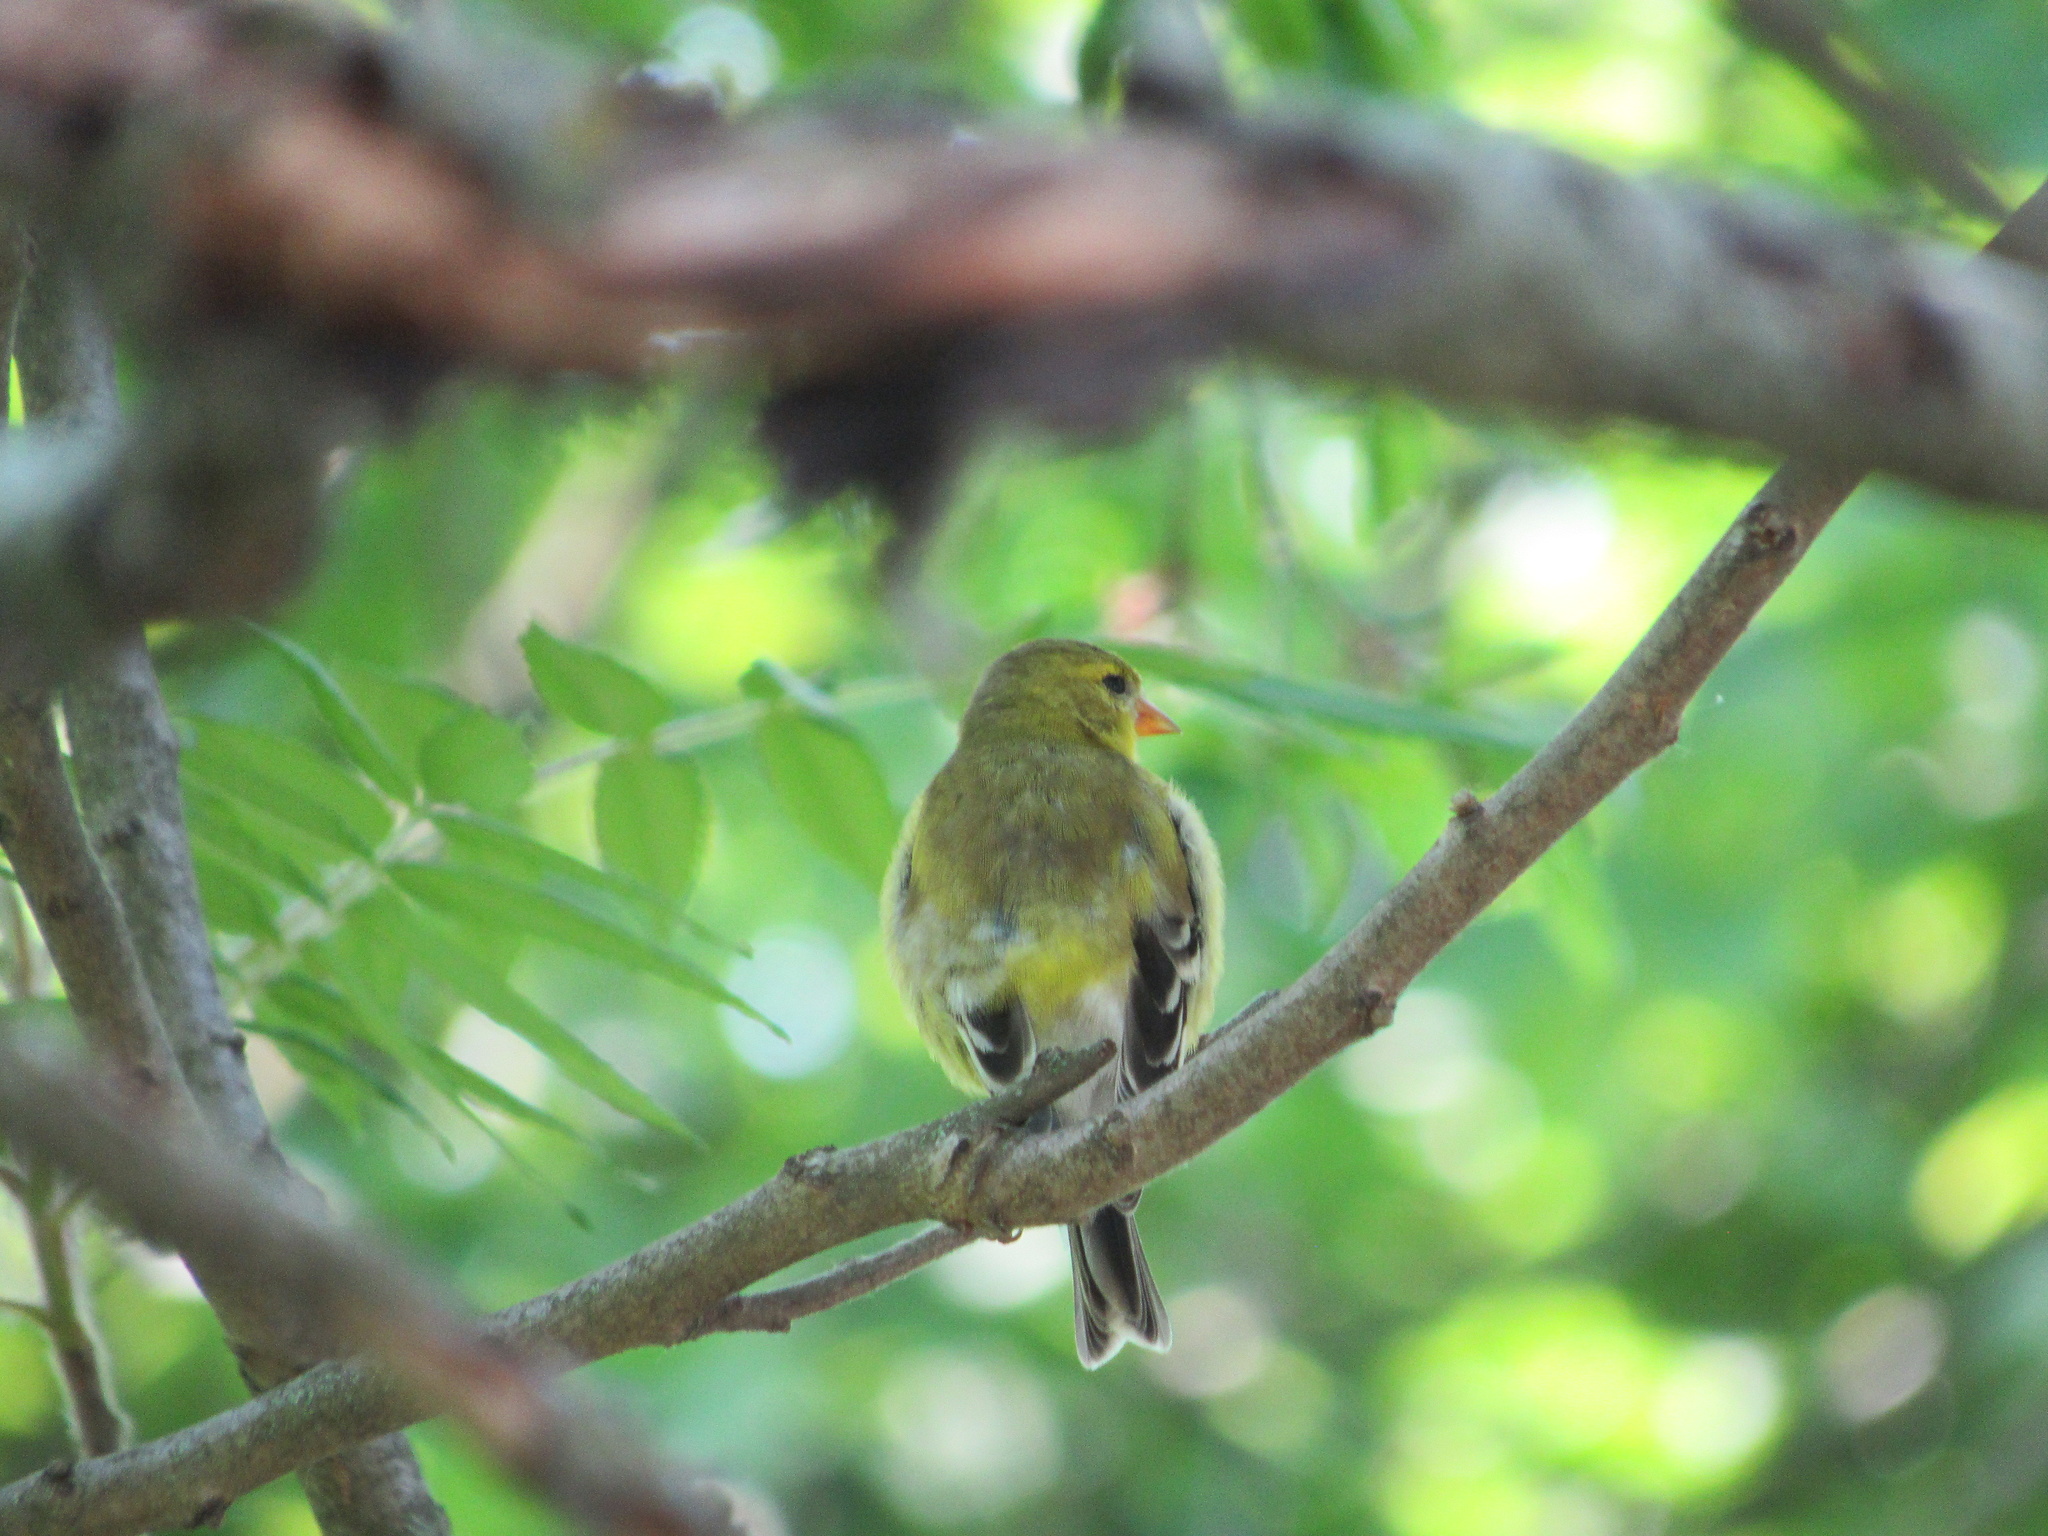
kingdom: Animalia
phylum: Chordata
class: Aves
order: Passeriformes
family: Fringillidae
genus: Spinus
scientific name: Spinus tristis
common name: American goldfinch
